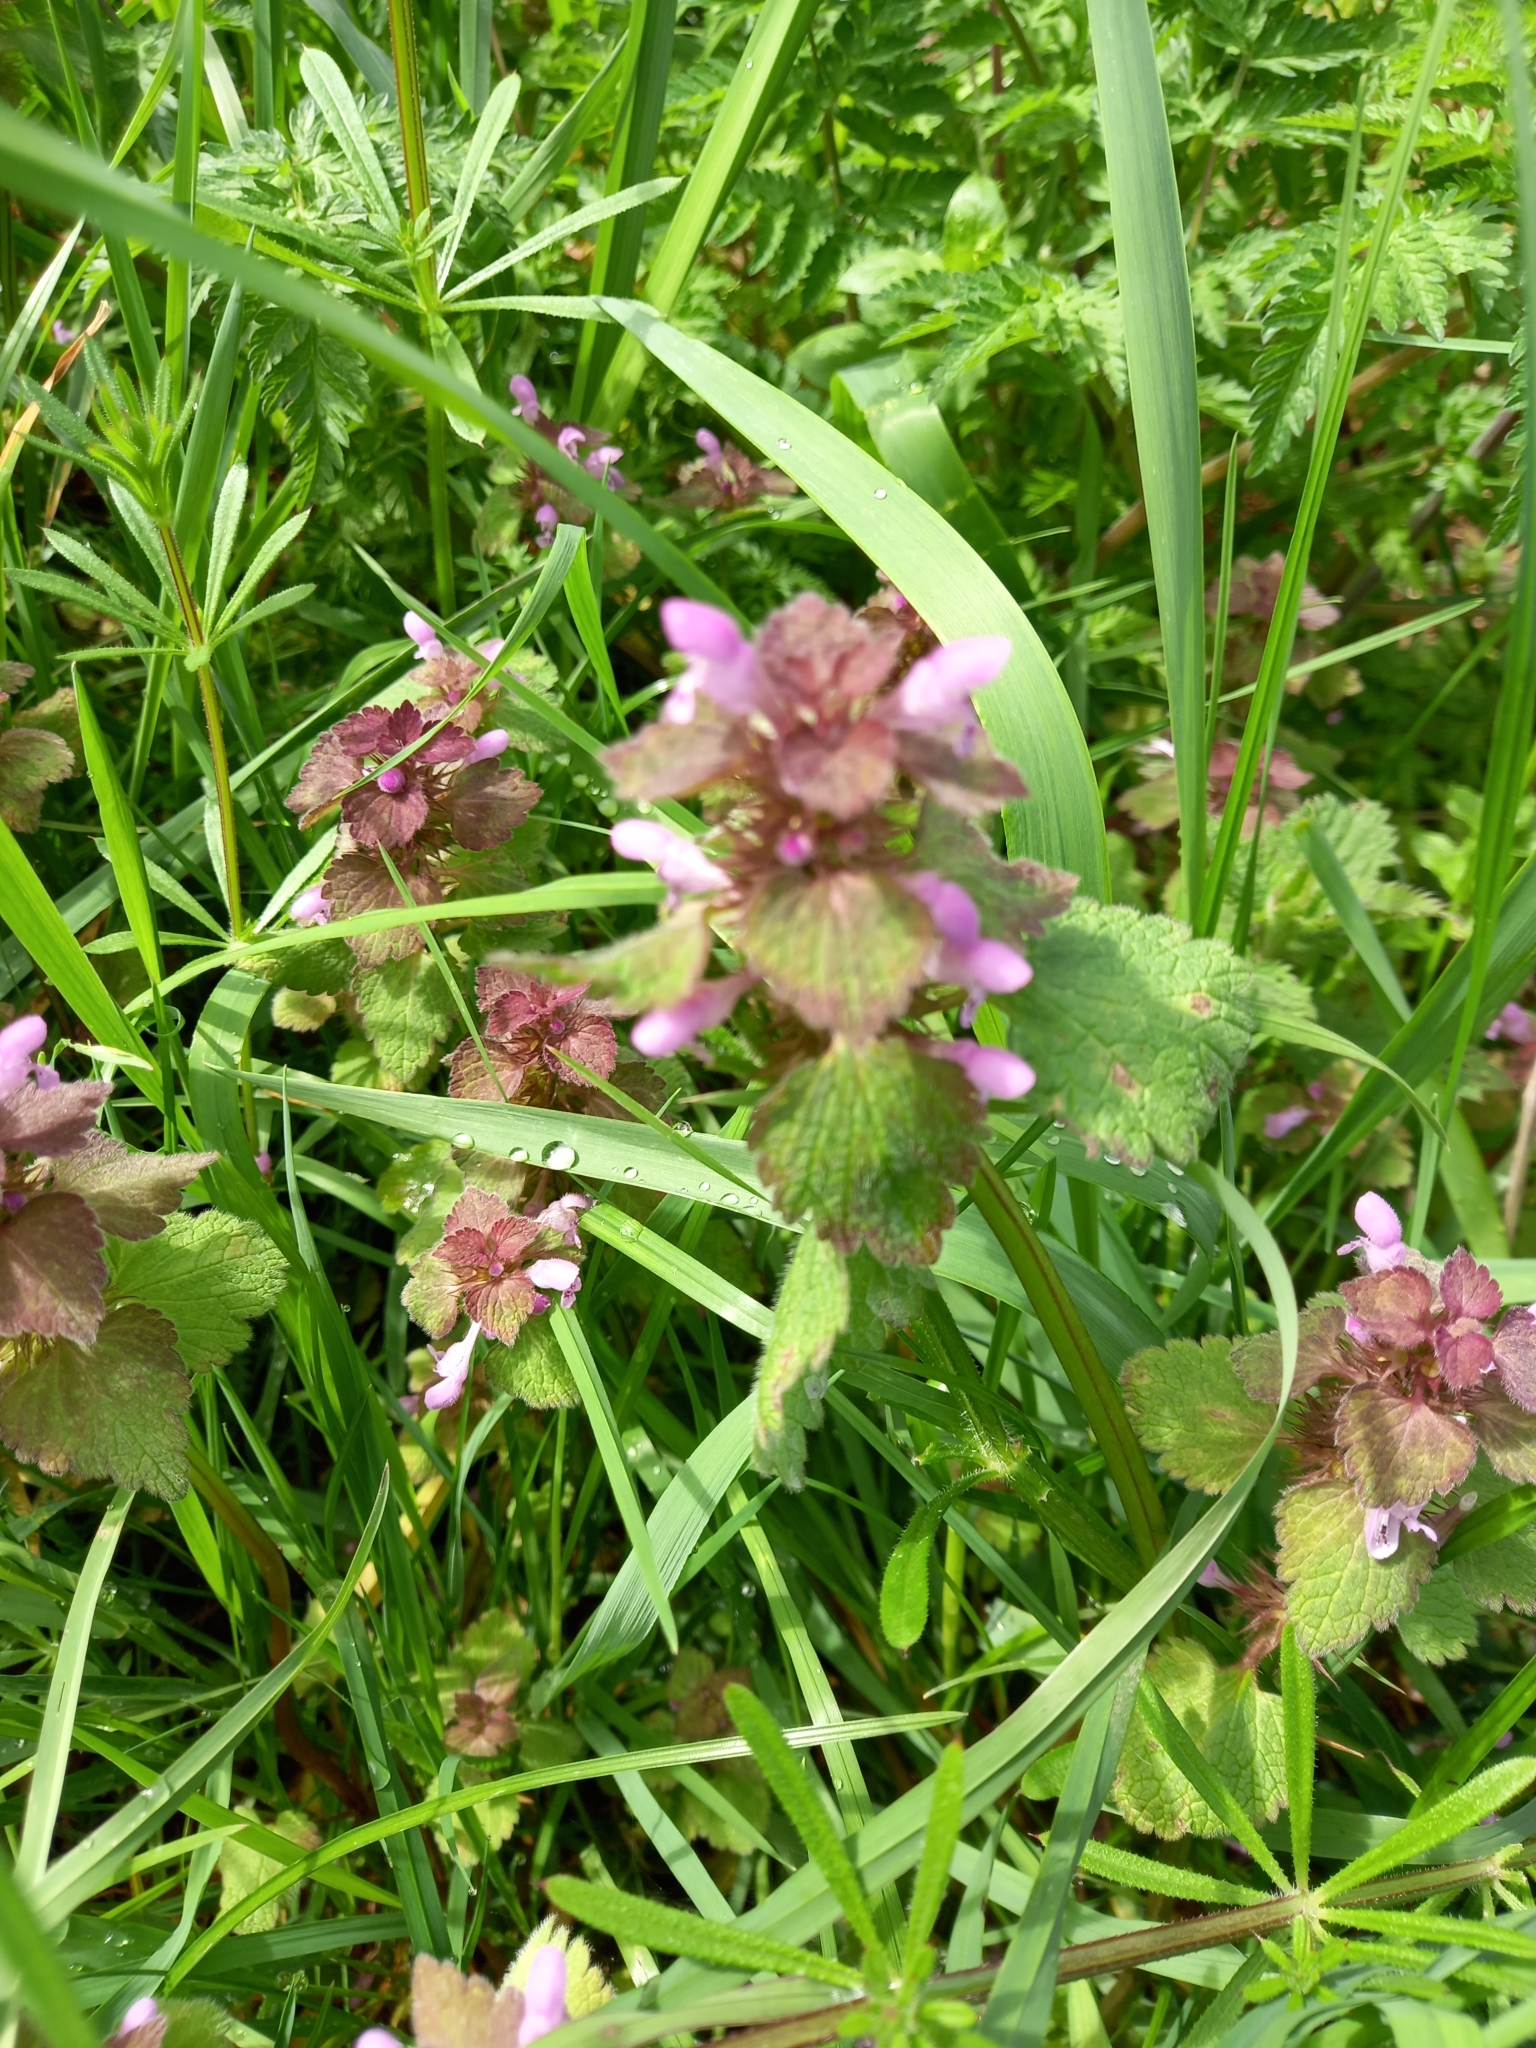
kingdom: Plantae
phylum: Tracheophyta
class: Magnoliopsida
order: Lamiales
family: Lamiaceae
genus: Lamium
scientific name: Lamium purpureum
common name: Red dead-nettle
